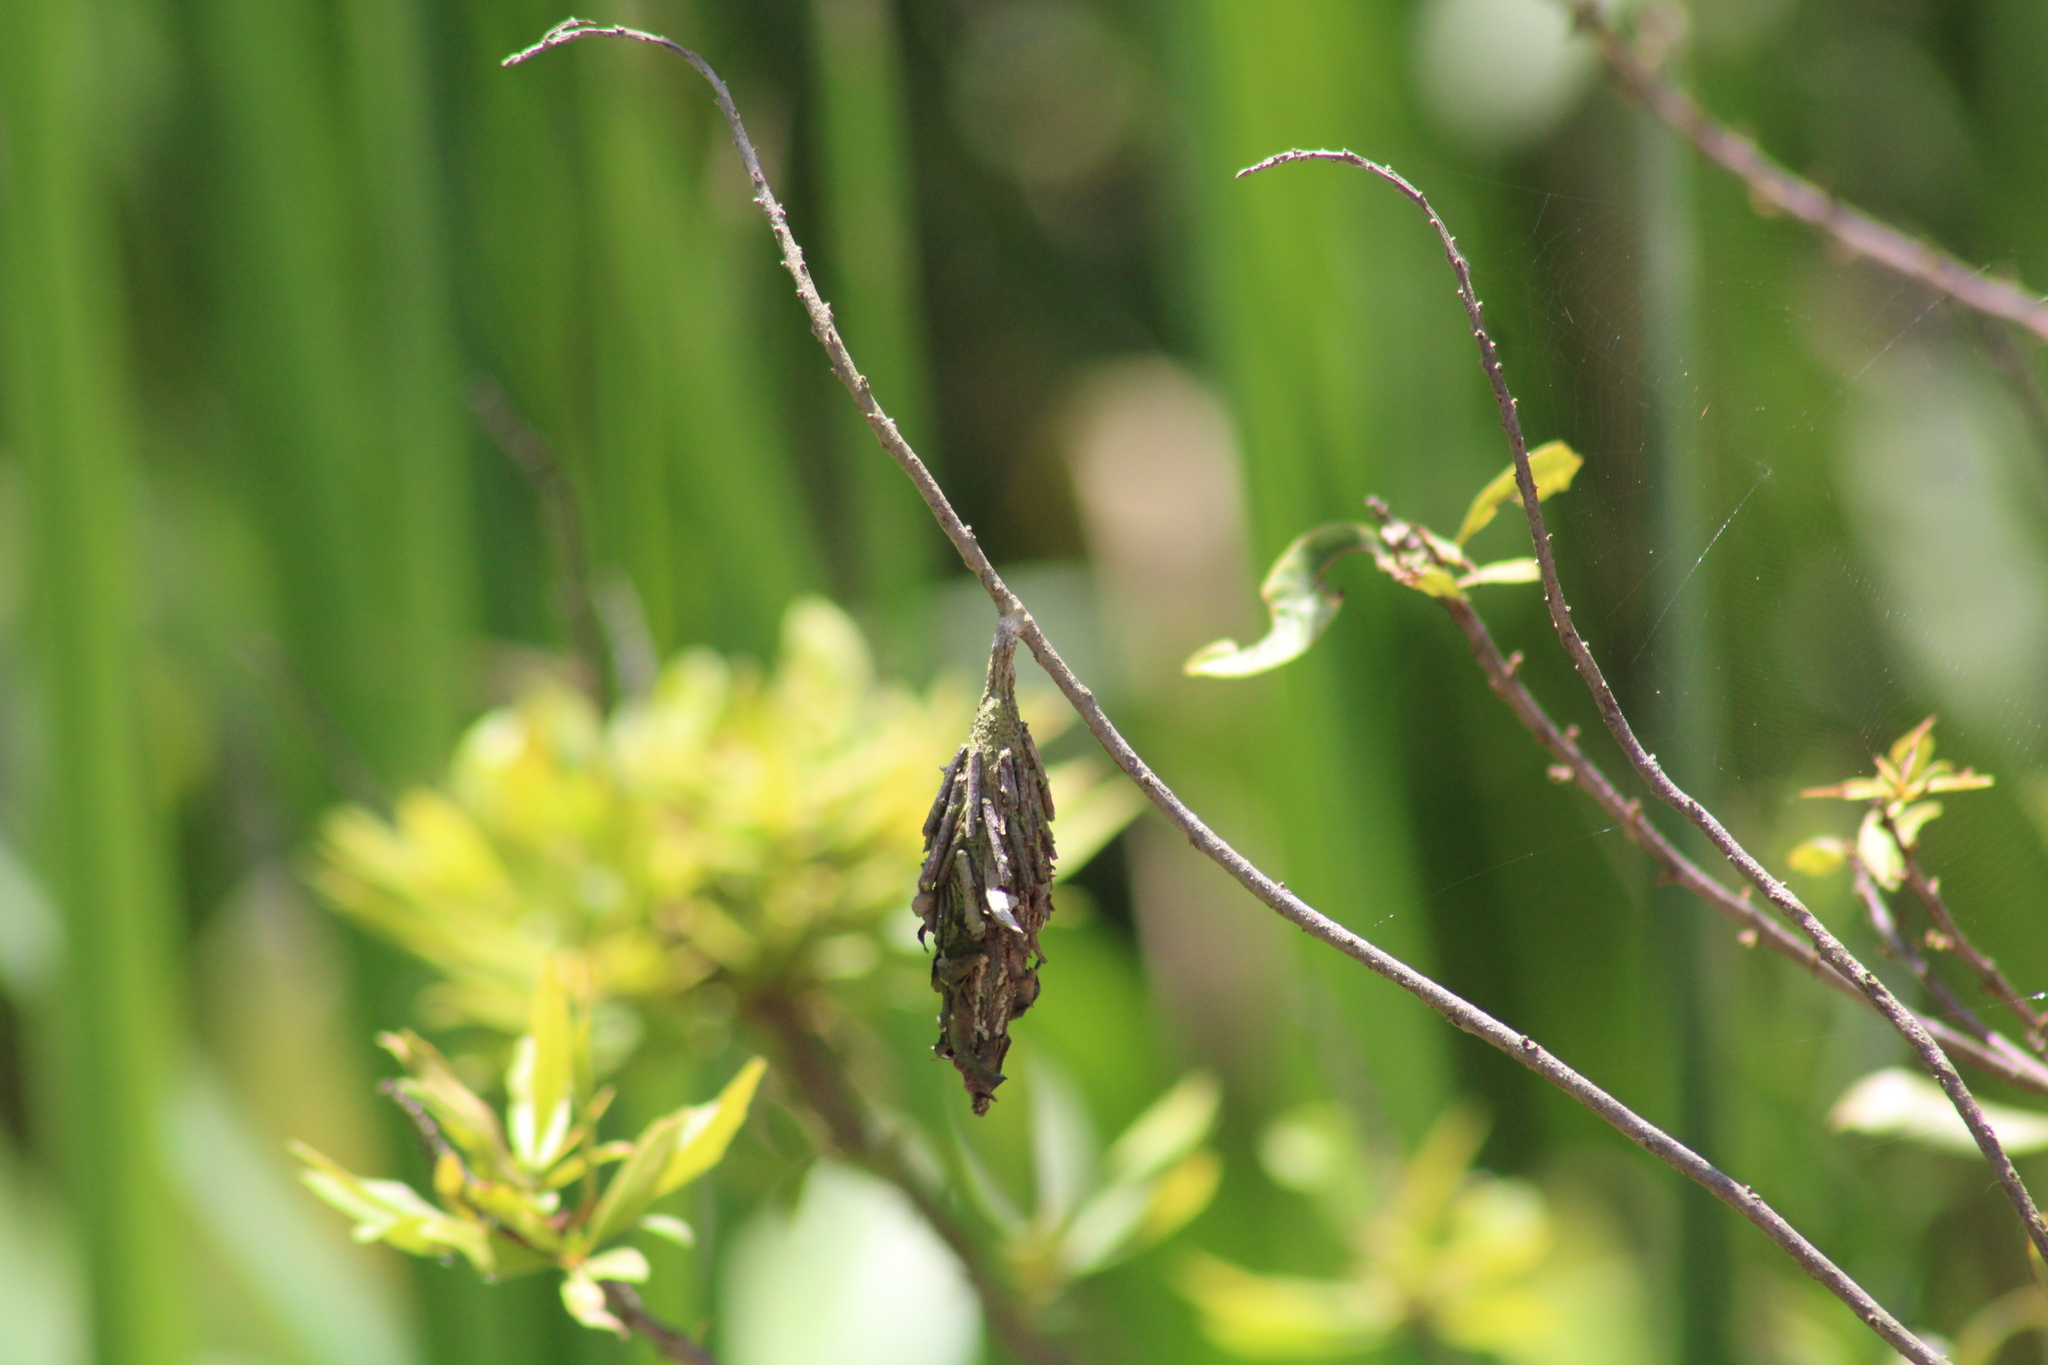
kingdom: Animalia
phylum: Arthropoda
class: Insecta
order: Lepidoptera
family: Psychidae
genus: Thyridopteryx
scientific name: Thyridopteryx ephemeraeformis
